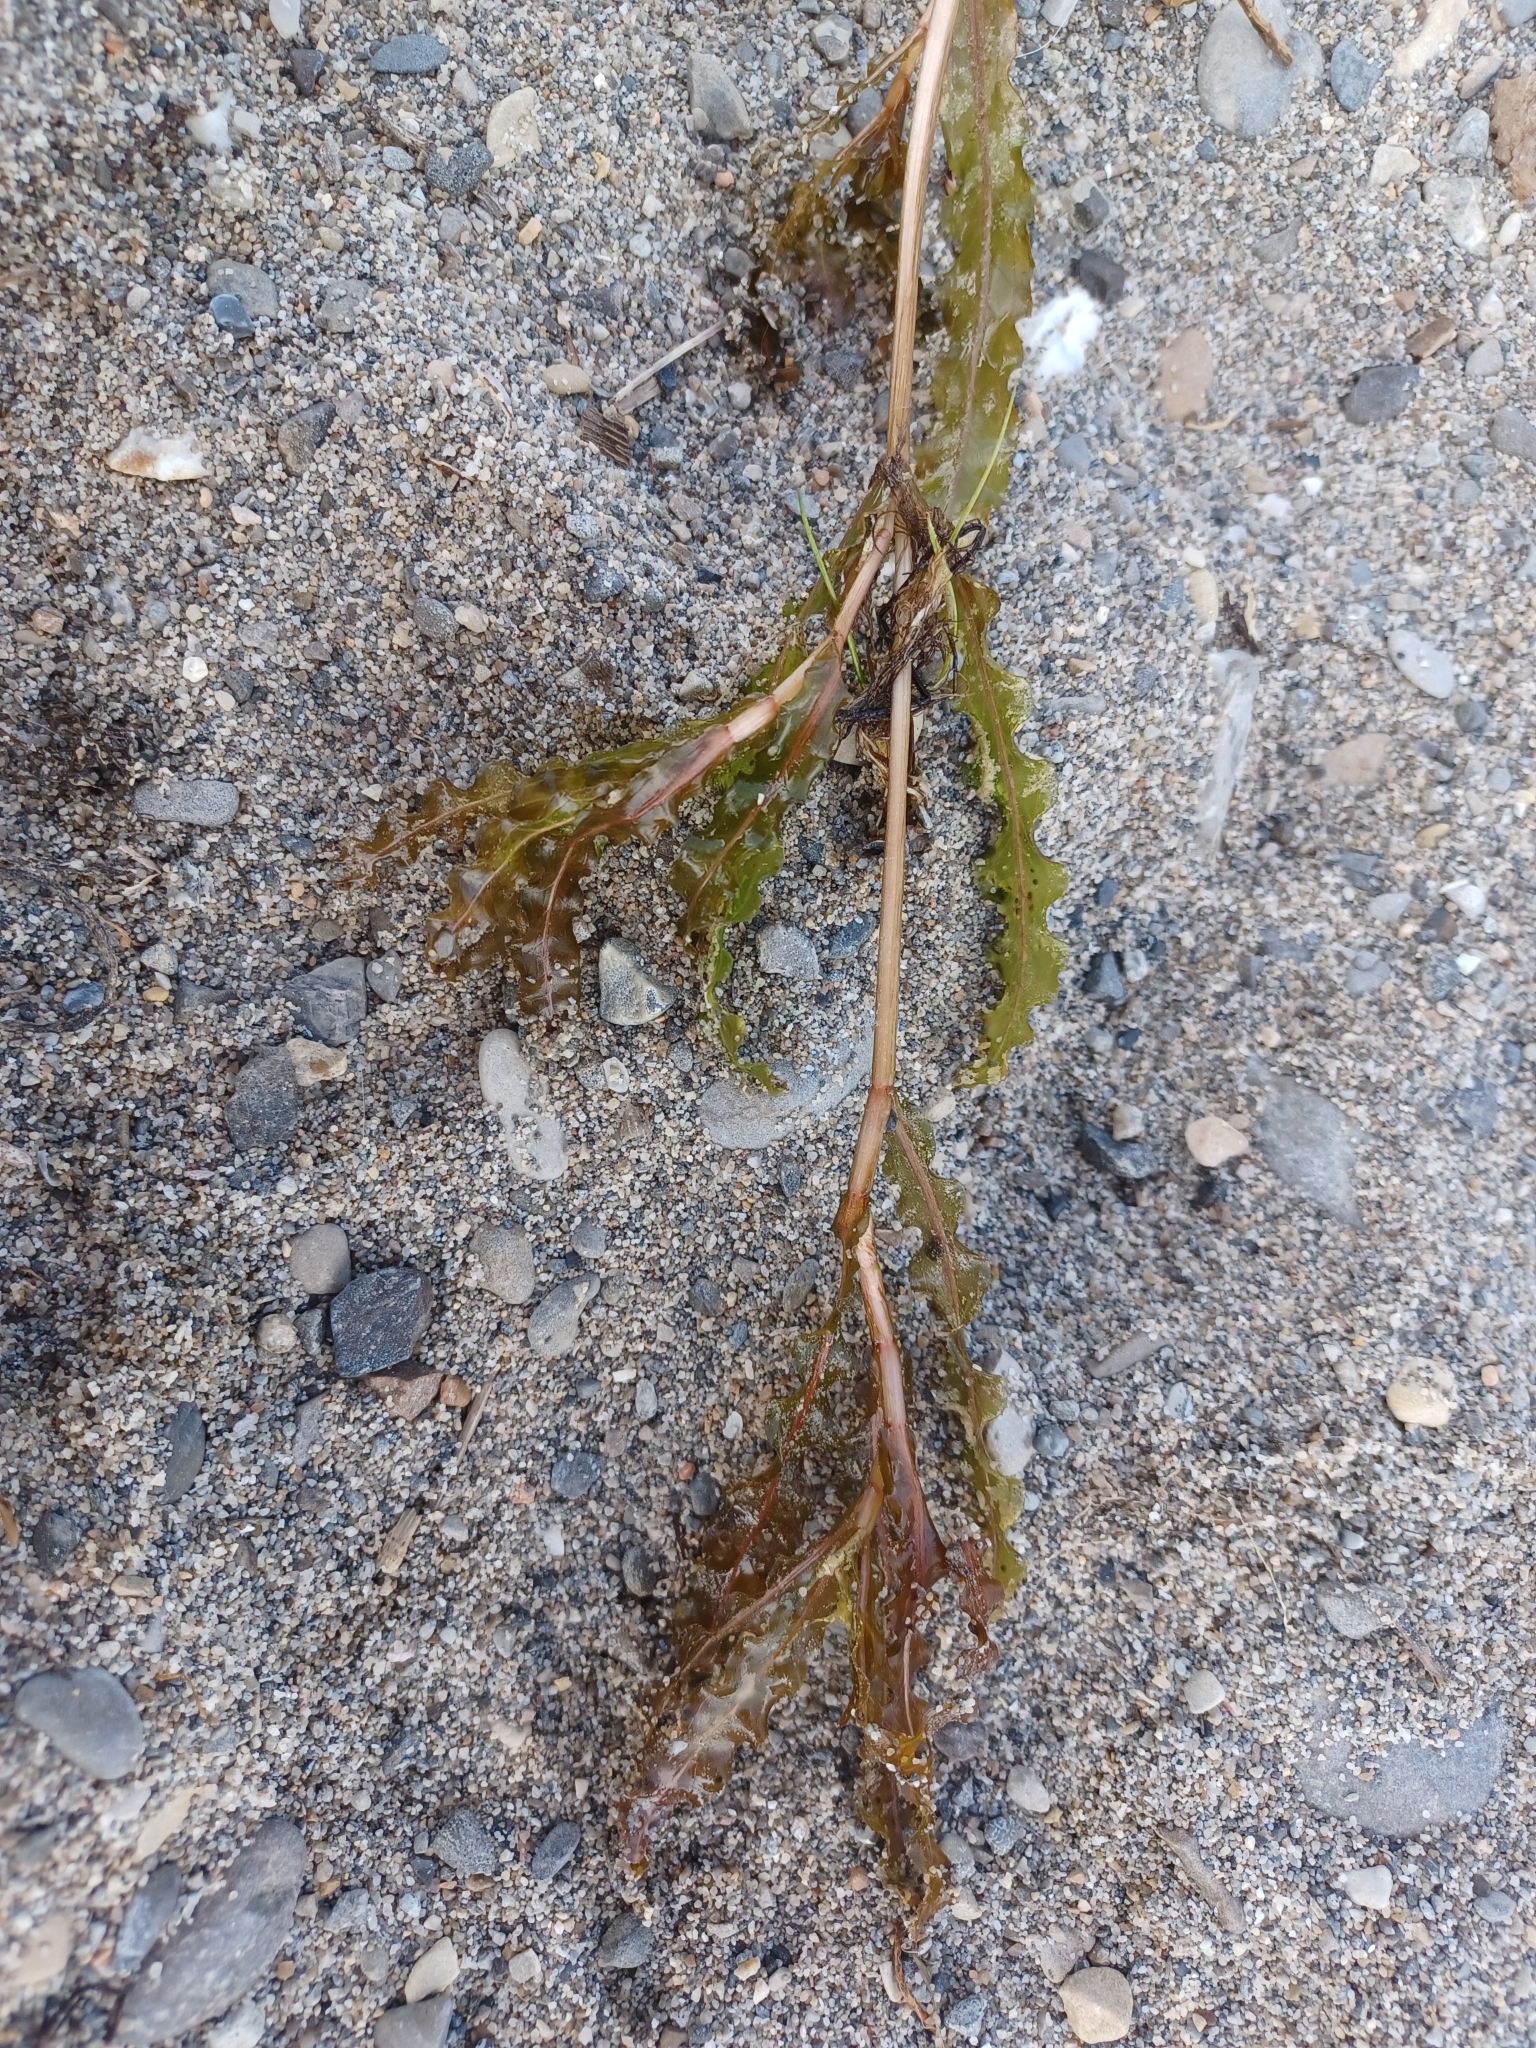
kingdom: Plantae
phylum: Tracheophyta
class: Liliopsida
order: Alismatales
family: Potamogetonaceae
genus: Potamogeton
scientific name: Potamogeton crispus
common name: Curled pondweed
